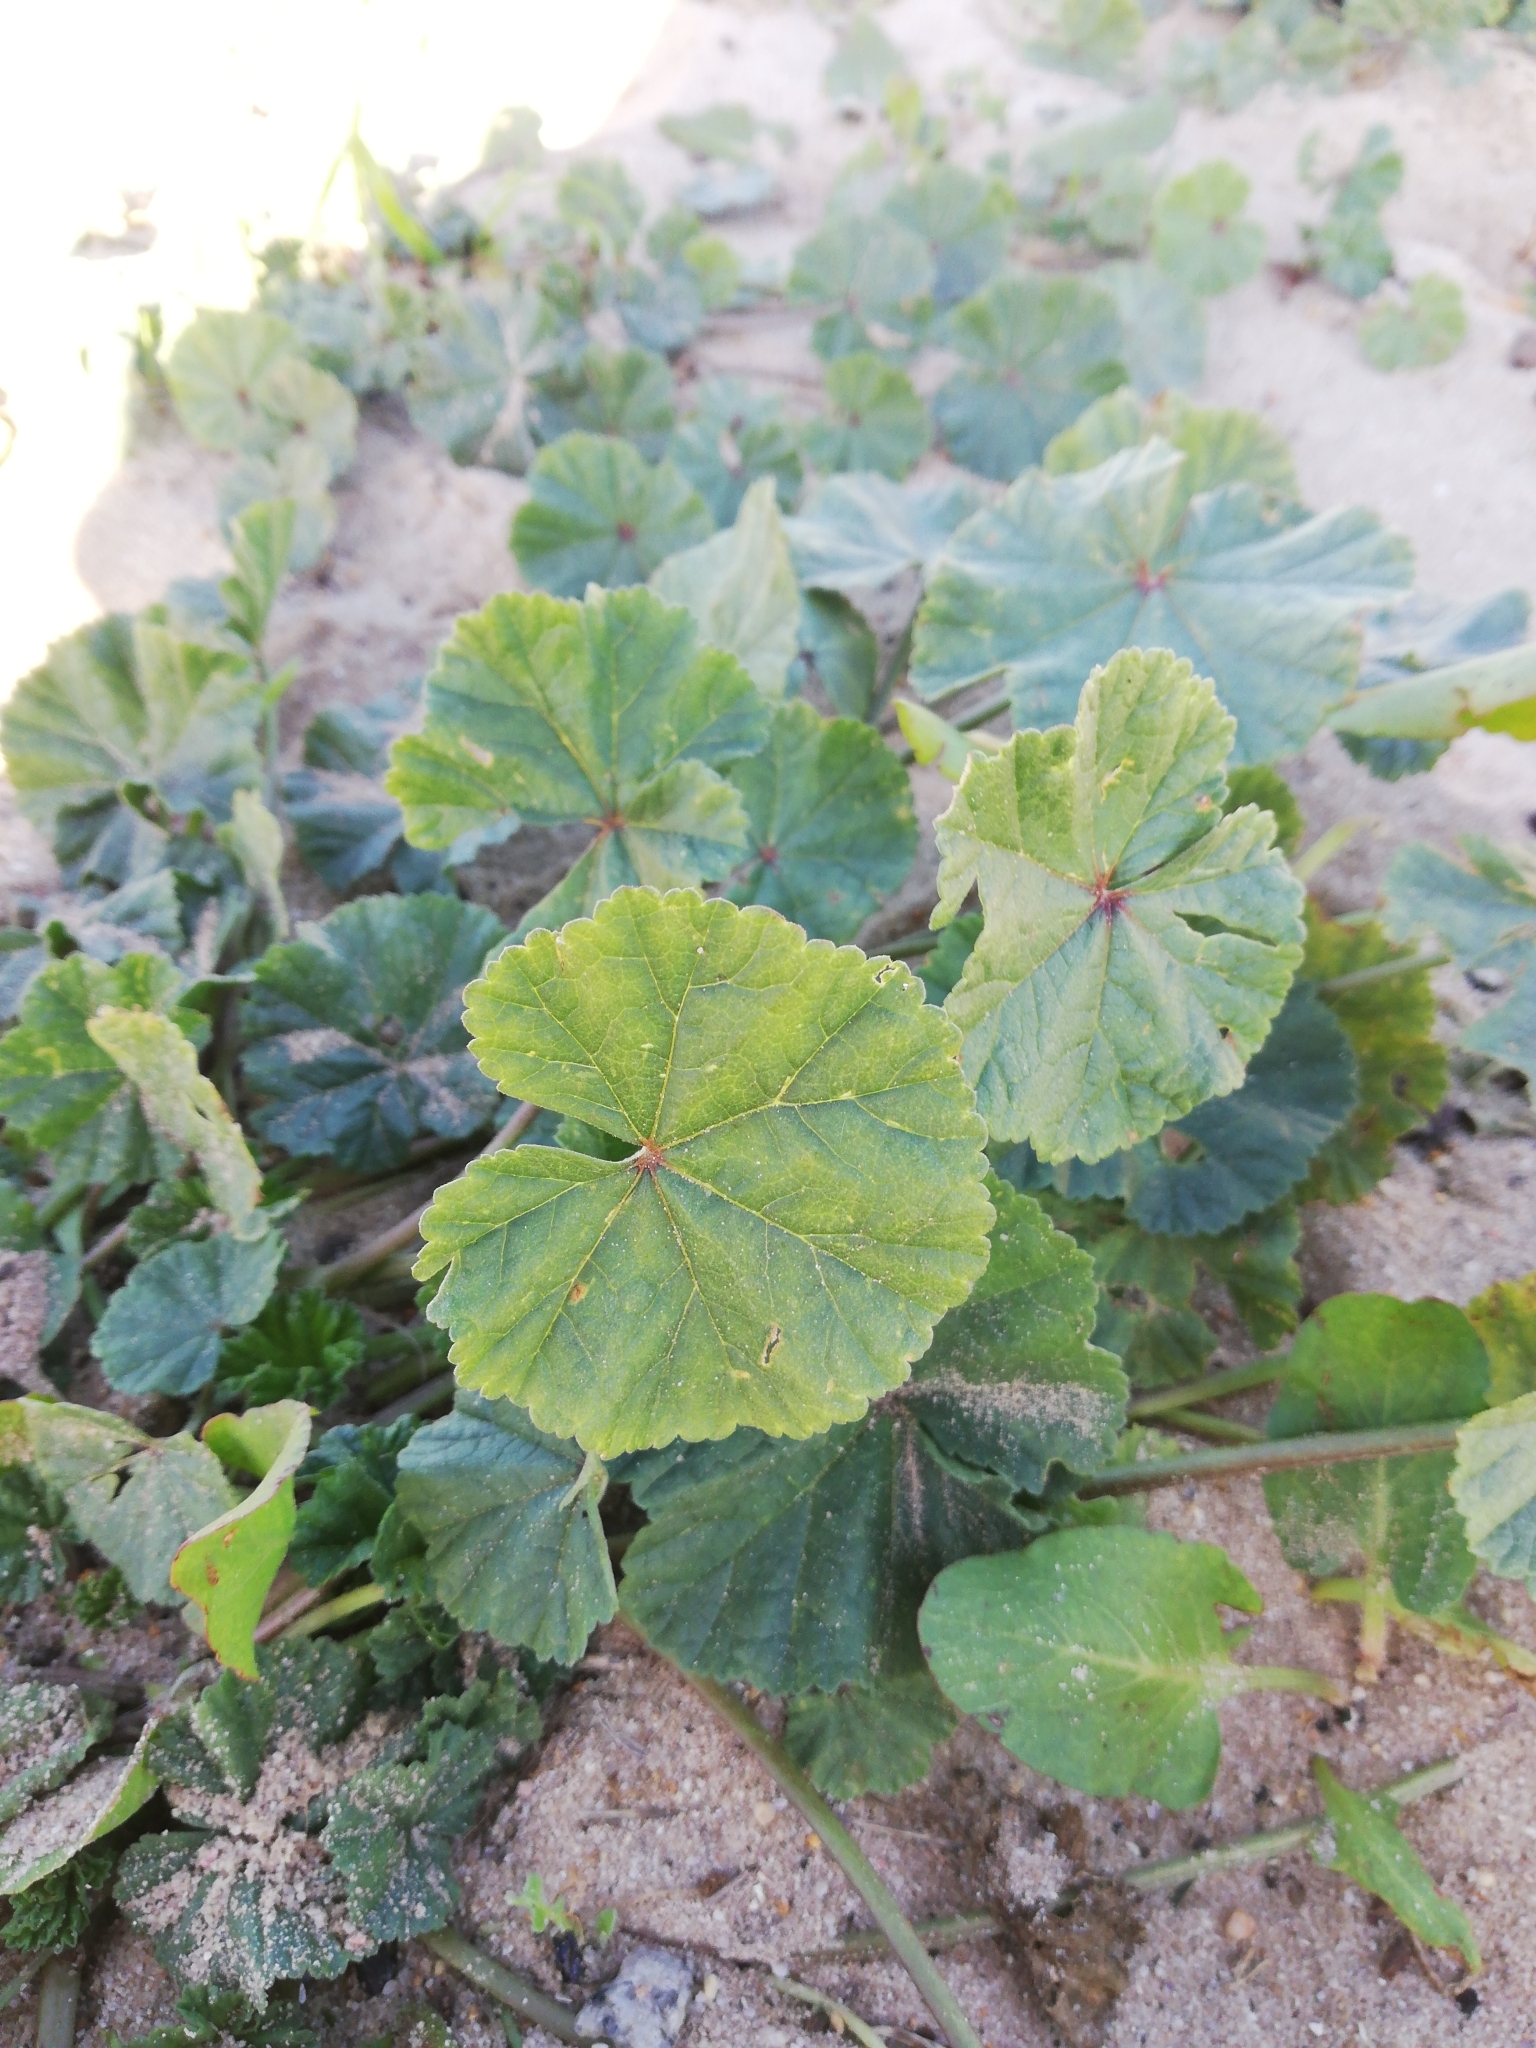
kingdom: Plantae
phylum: Tracheophyta
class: Magnoliopsida
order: Malvales
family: Malvaceae
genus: Malva
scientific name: Malva parviflora
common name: Least mallow
